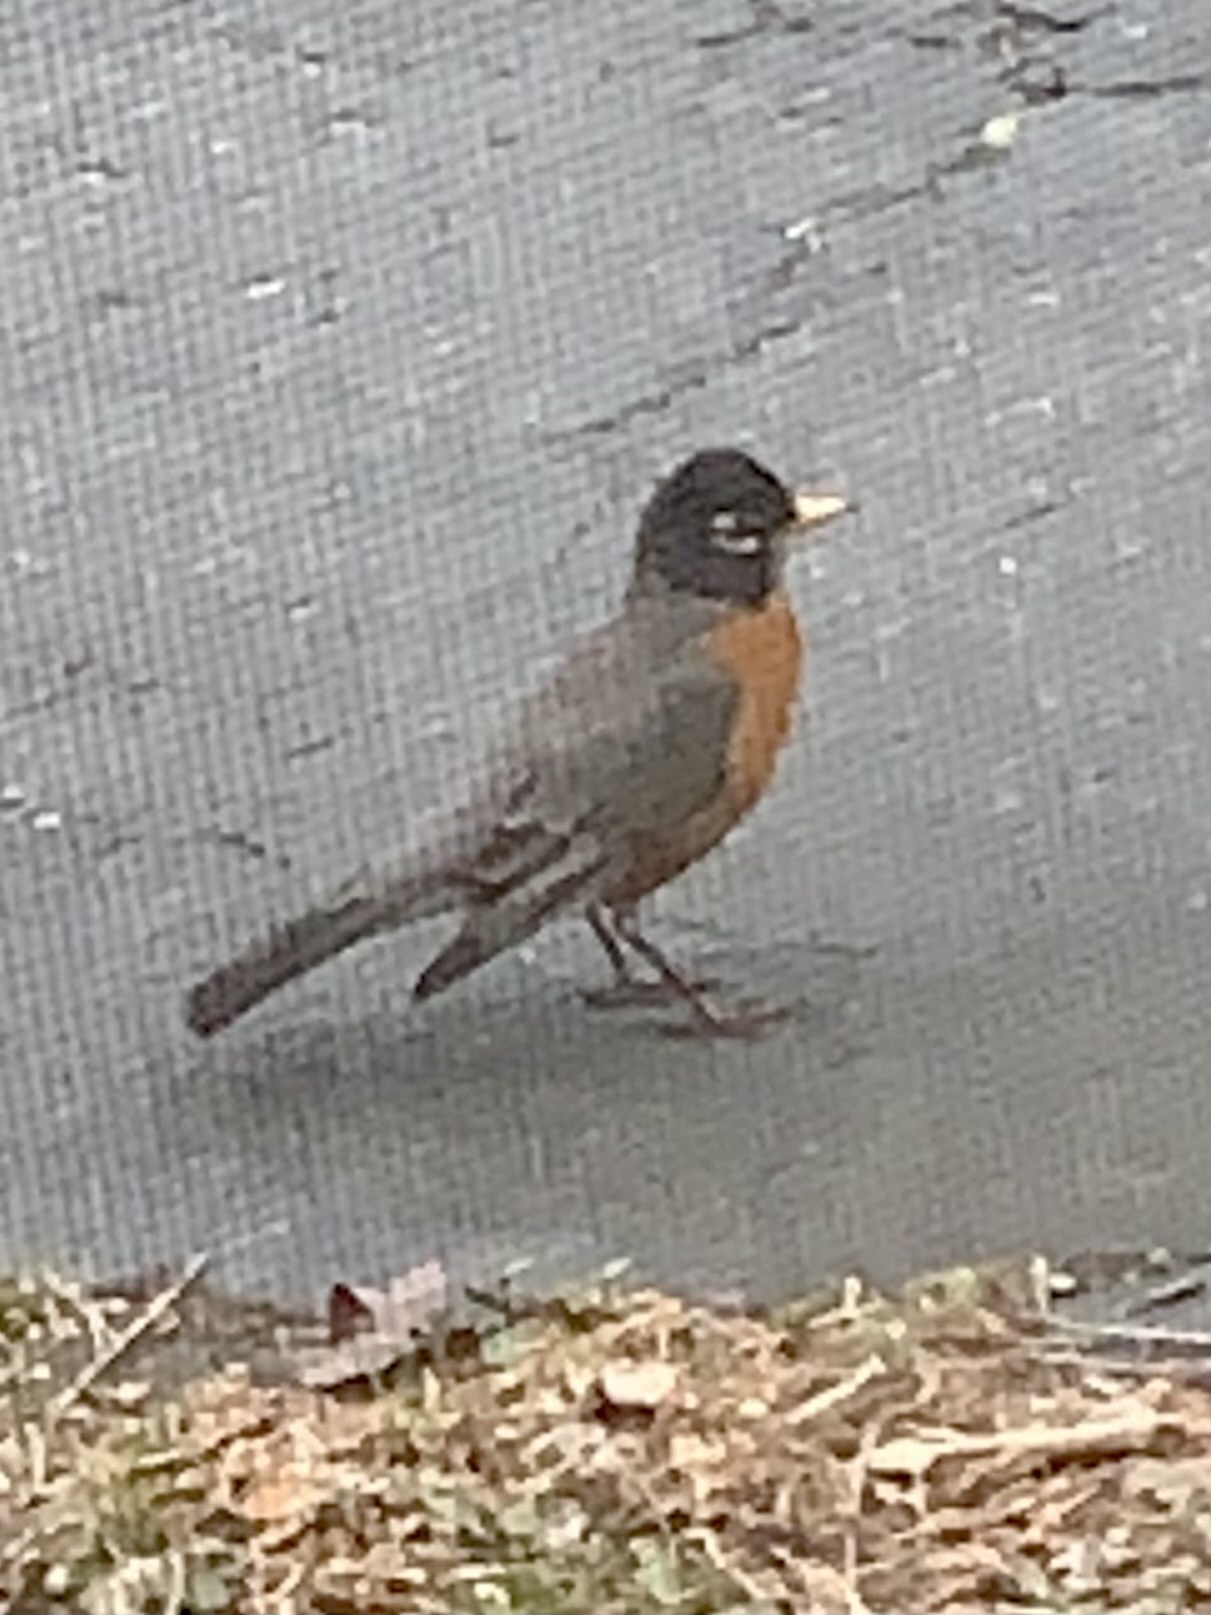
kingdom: Animalia
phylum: Chordata
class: Aves
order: Passeriformes
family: Turdidae
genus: Turdus
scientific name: Turdus migratorius
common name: American robin
